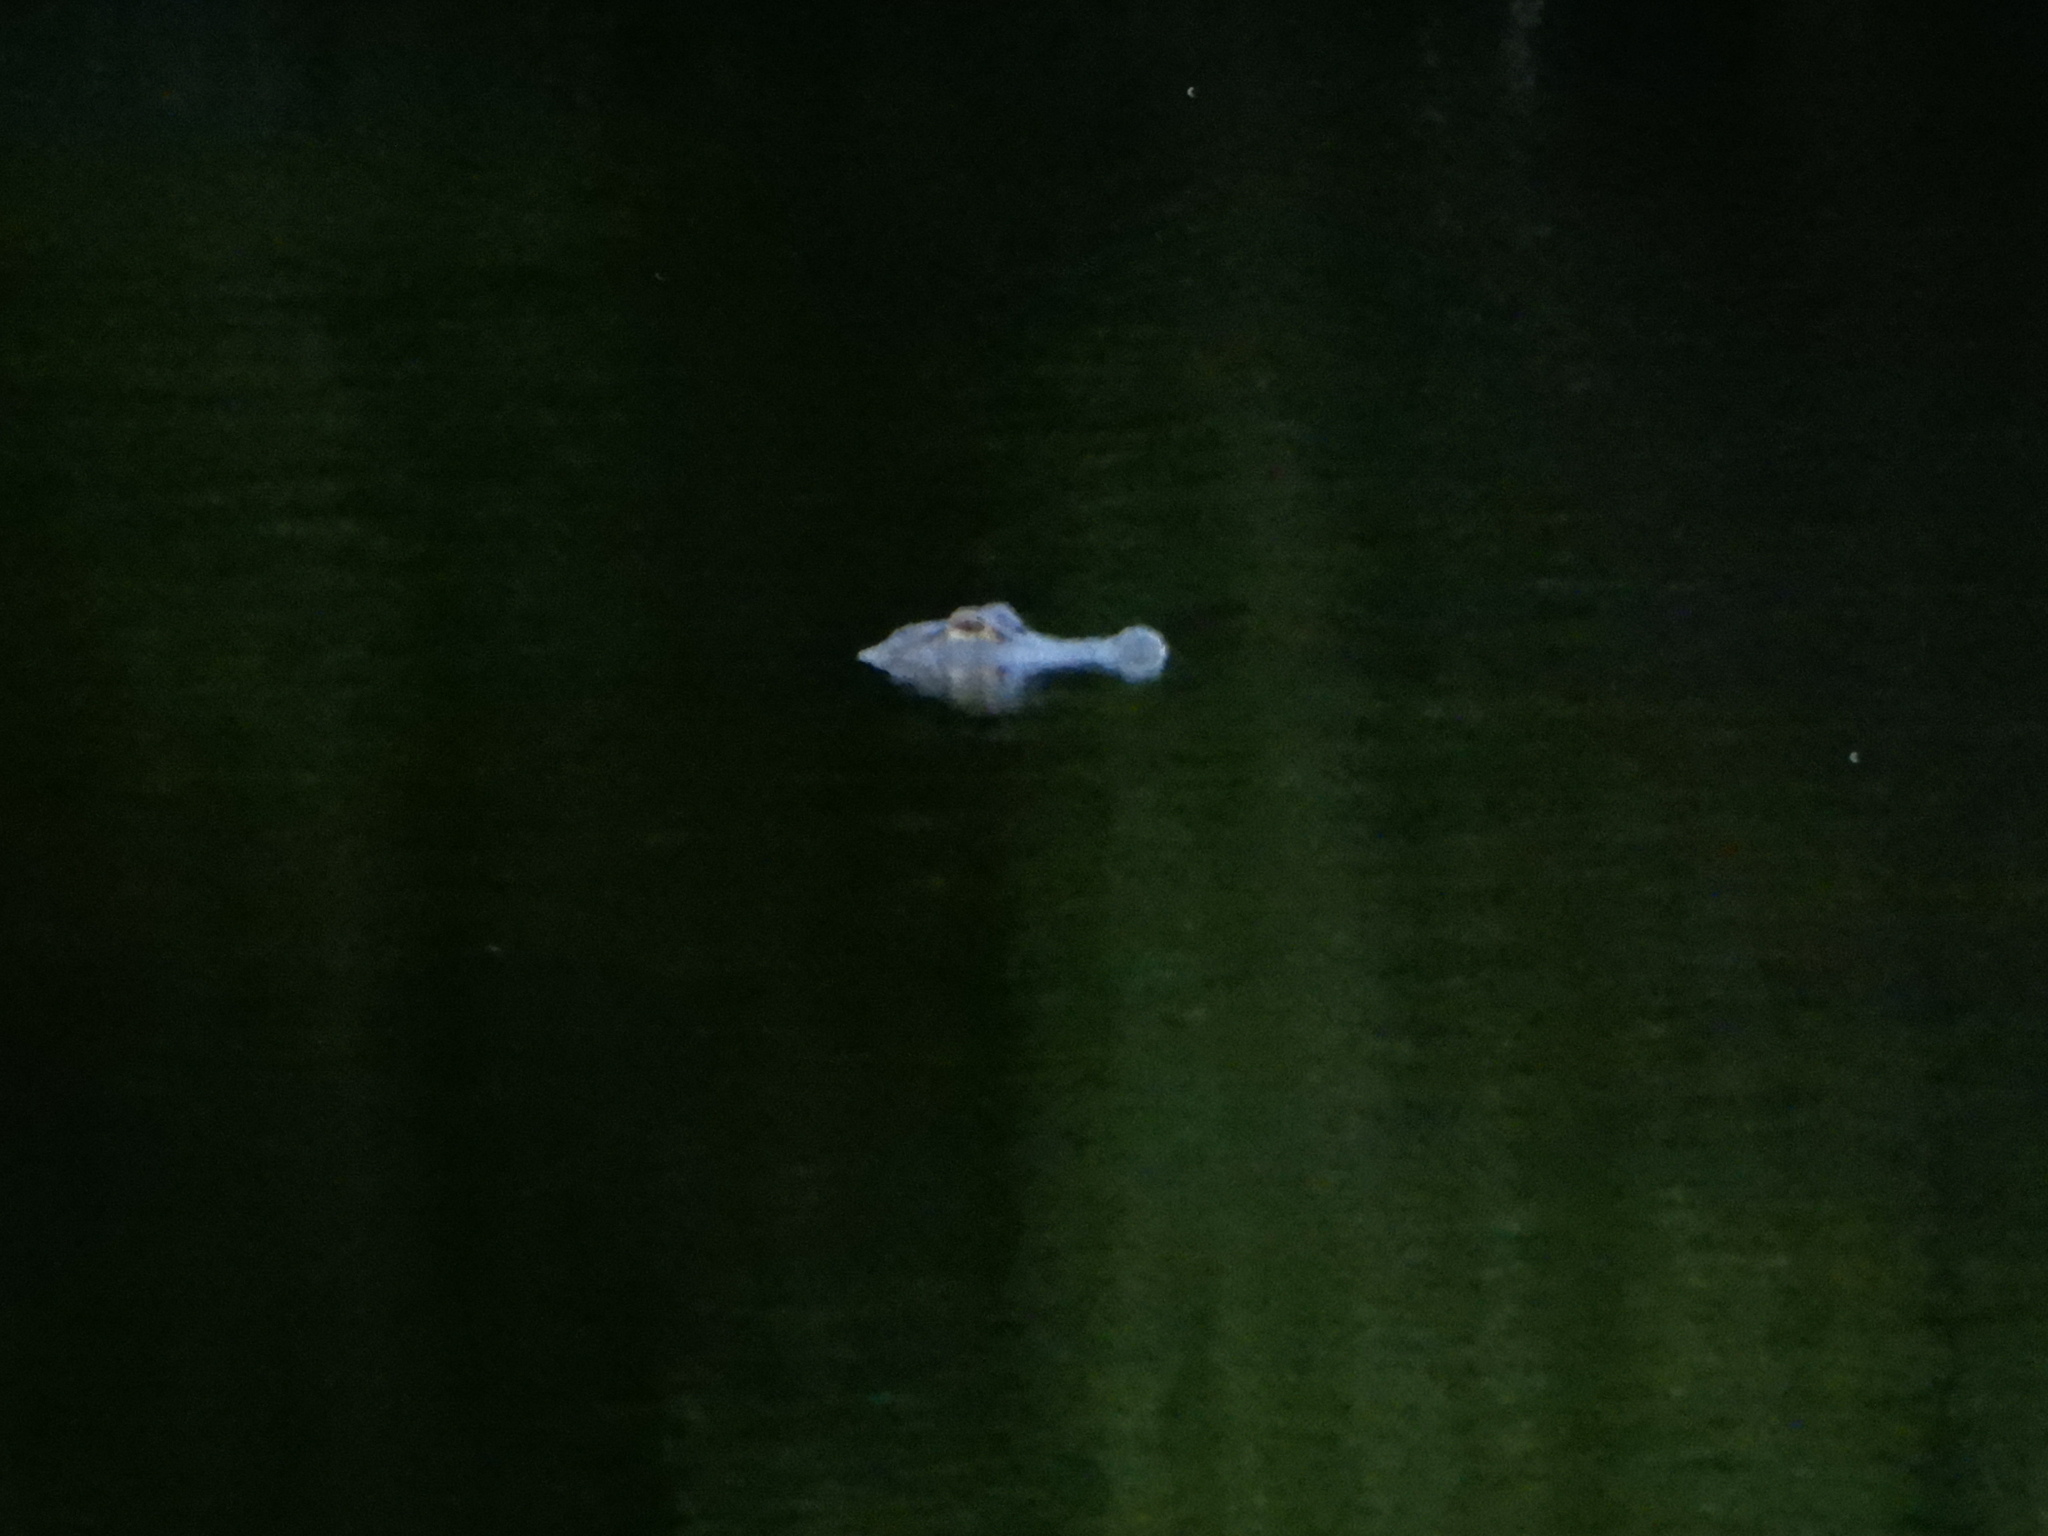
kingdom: Animalia
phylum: Chordata
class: Crocodylia
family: Alligatoridae
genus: Alligator
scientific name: Alligator mississippiensis
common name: American alligator
